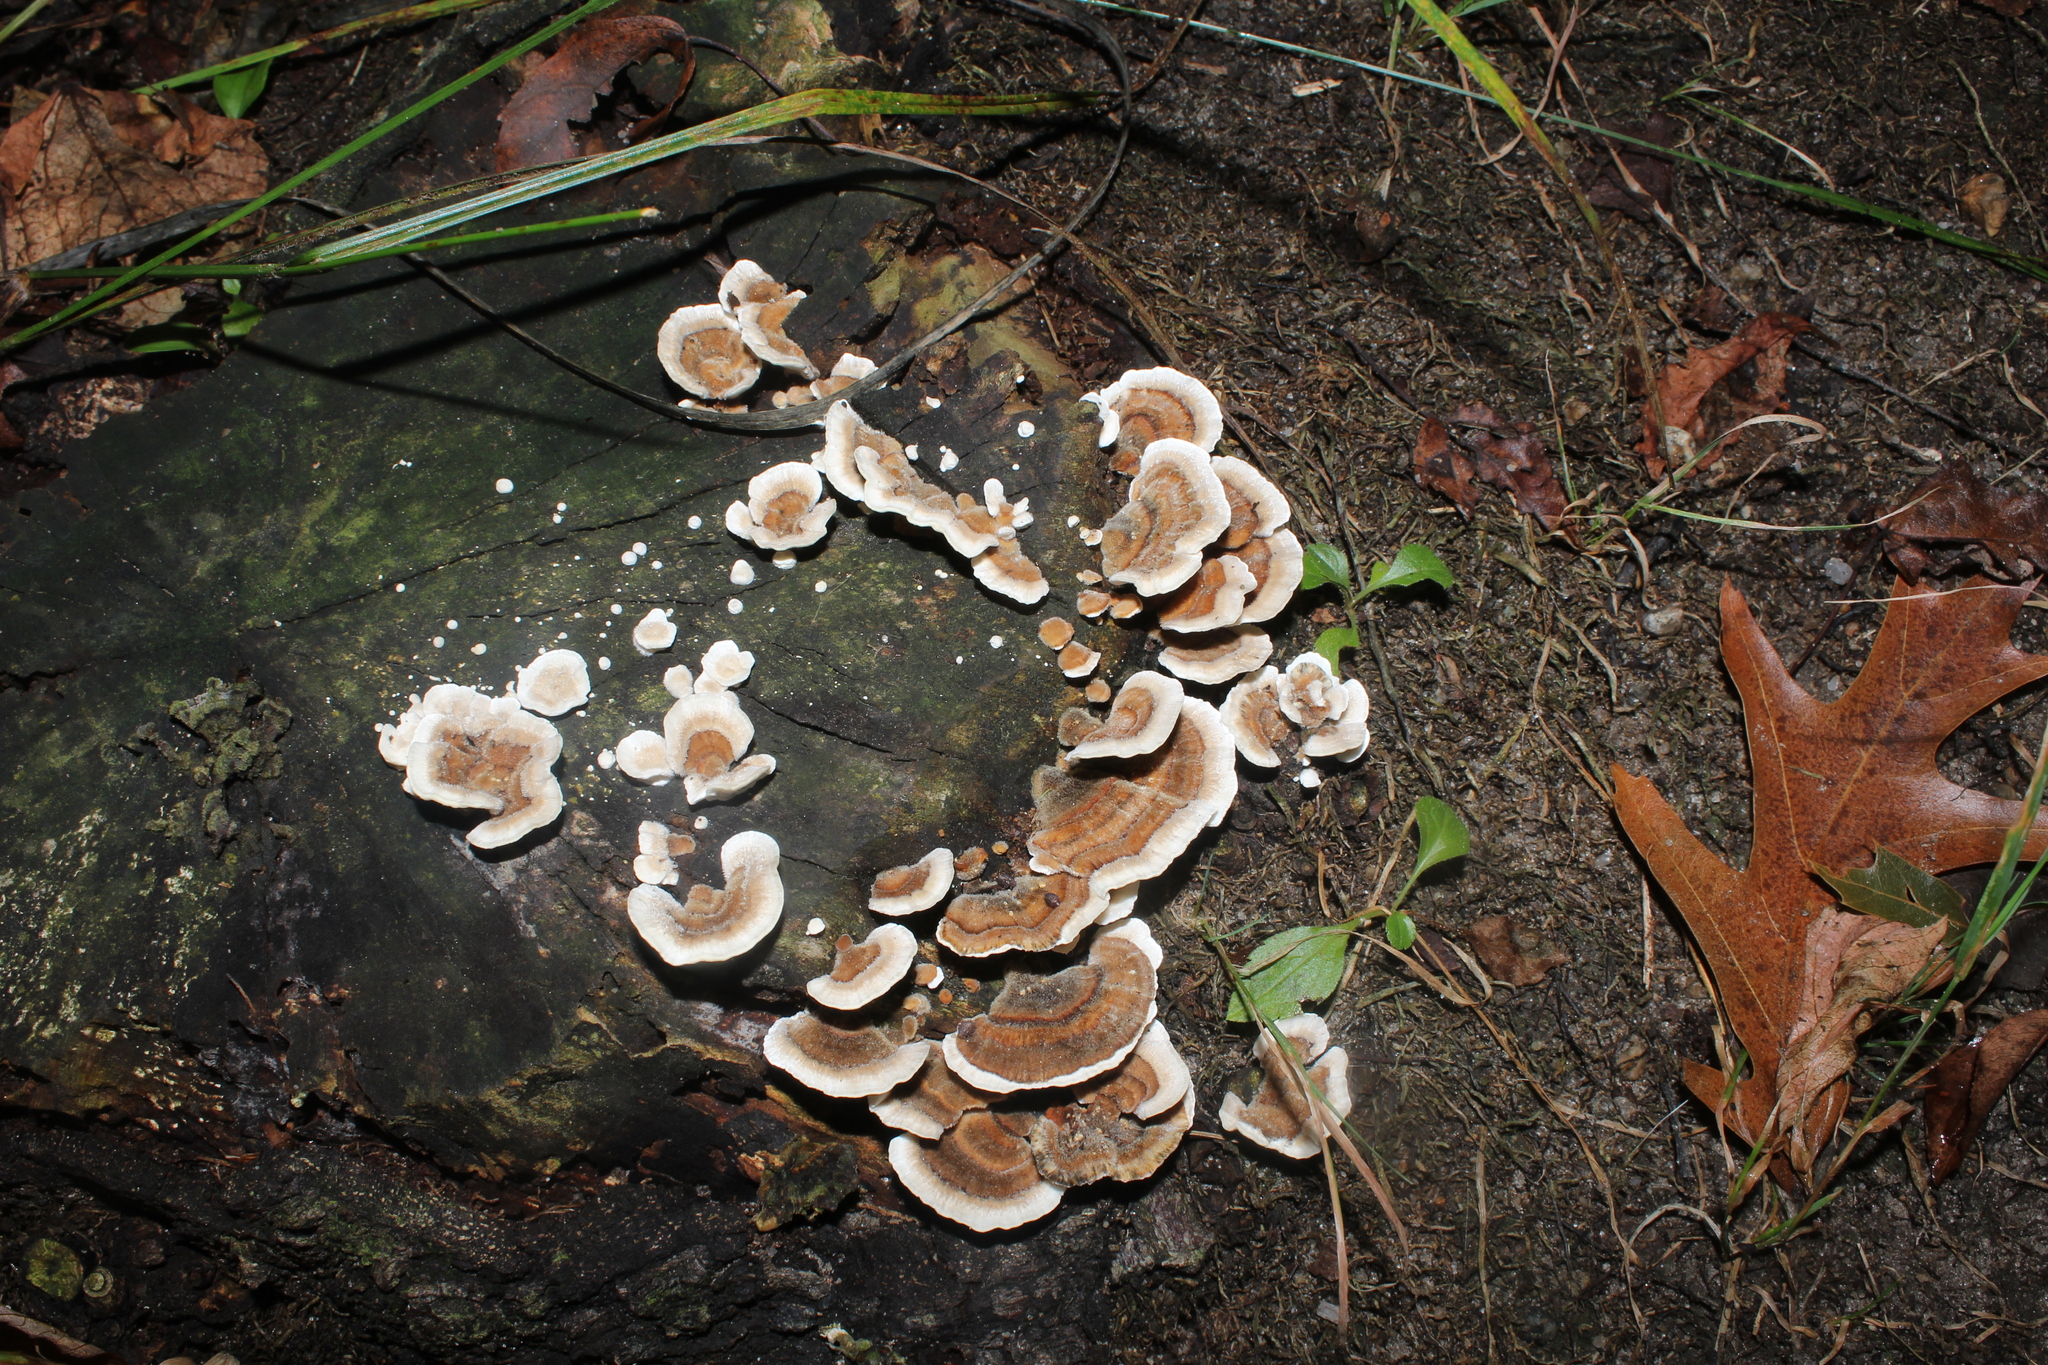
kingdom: Fungi
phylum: Basidiomycota
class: Agaricomycetes
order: Polyporales
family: Polyporaceae
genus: Trametes
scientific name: Trametes versicolor
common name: Turkeytail
